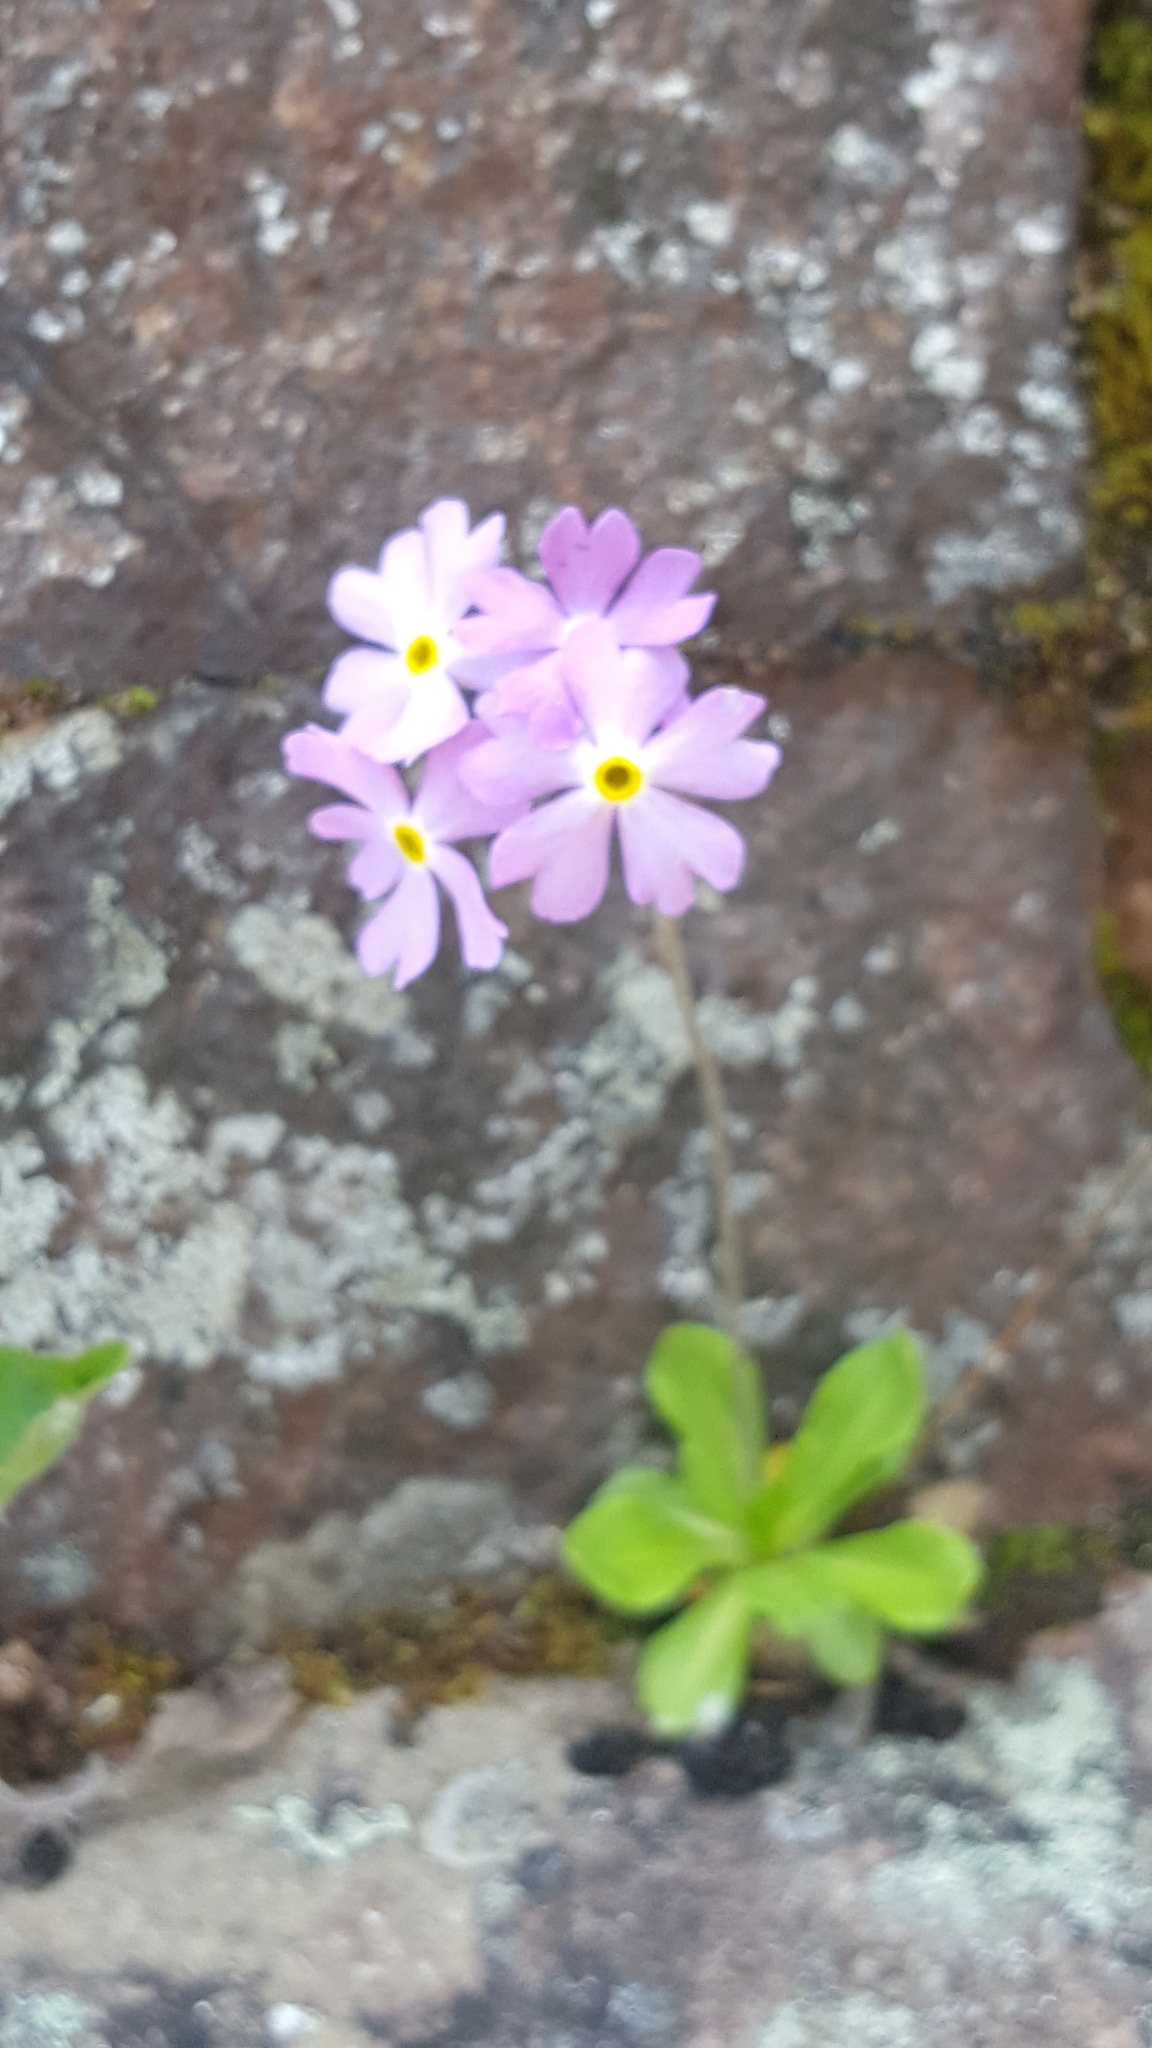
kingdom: Plantae
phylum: Tracheophyta
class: Magnoliopsida
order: Ericales
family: Primulaceae
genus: Primula
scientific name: Primula mistassinica
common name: Bird's-eye primrose
